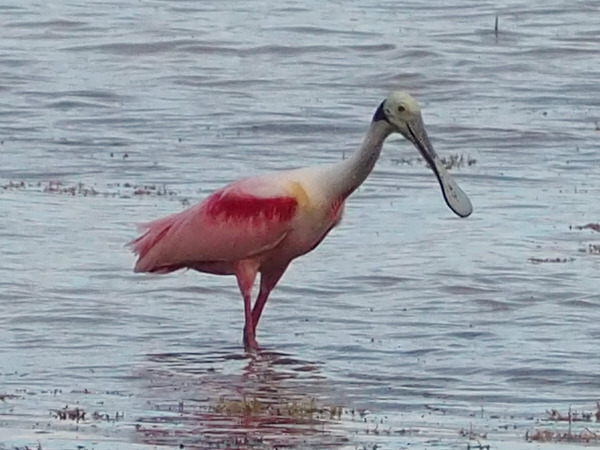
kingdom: Animalia
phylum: Chordata
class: Aves
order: Pelecaniformes
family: Threskiornithidae
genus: Platalea
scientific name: Platalea ajaja
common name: Roseate spoonbill
